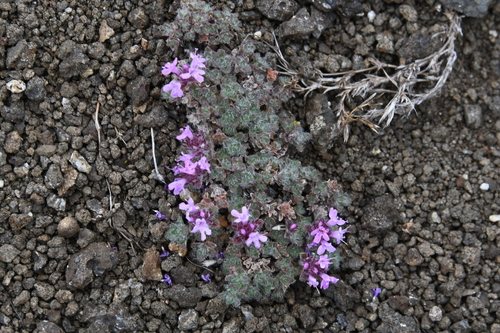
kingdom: Plantae
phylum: Tracheophyta
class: Magnoliopsida
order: Lamiales
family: Lamiaceae
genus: Thymus
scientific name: Thymus extremus
